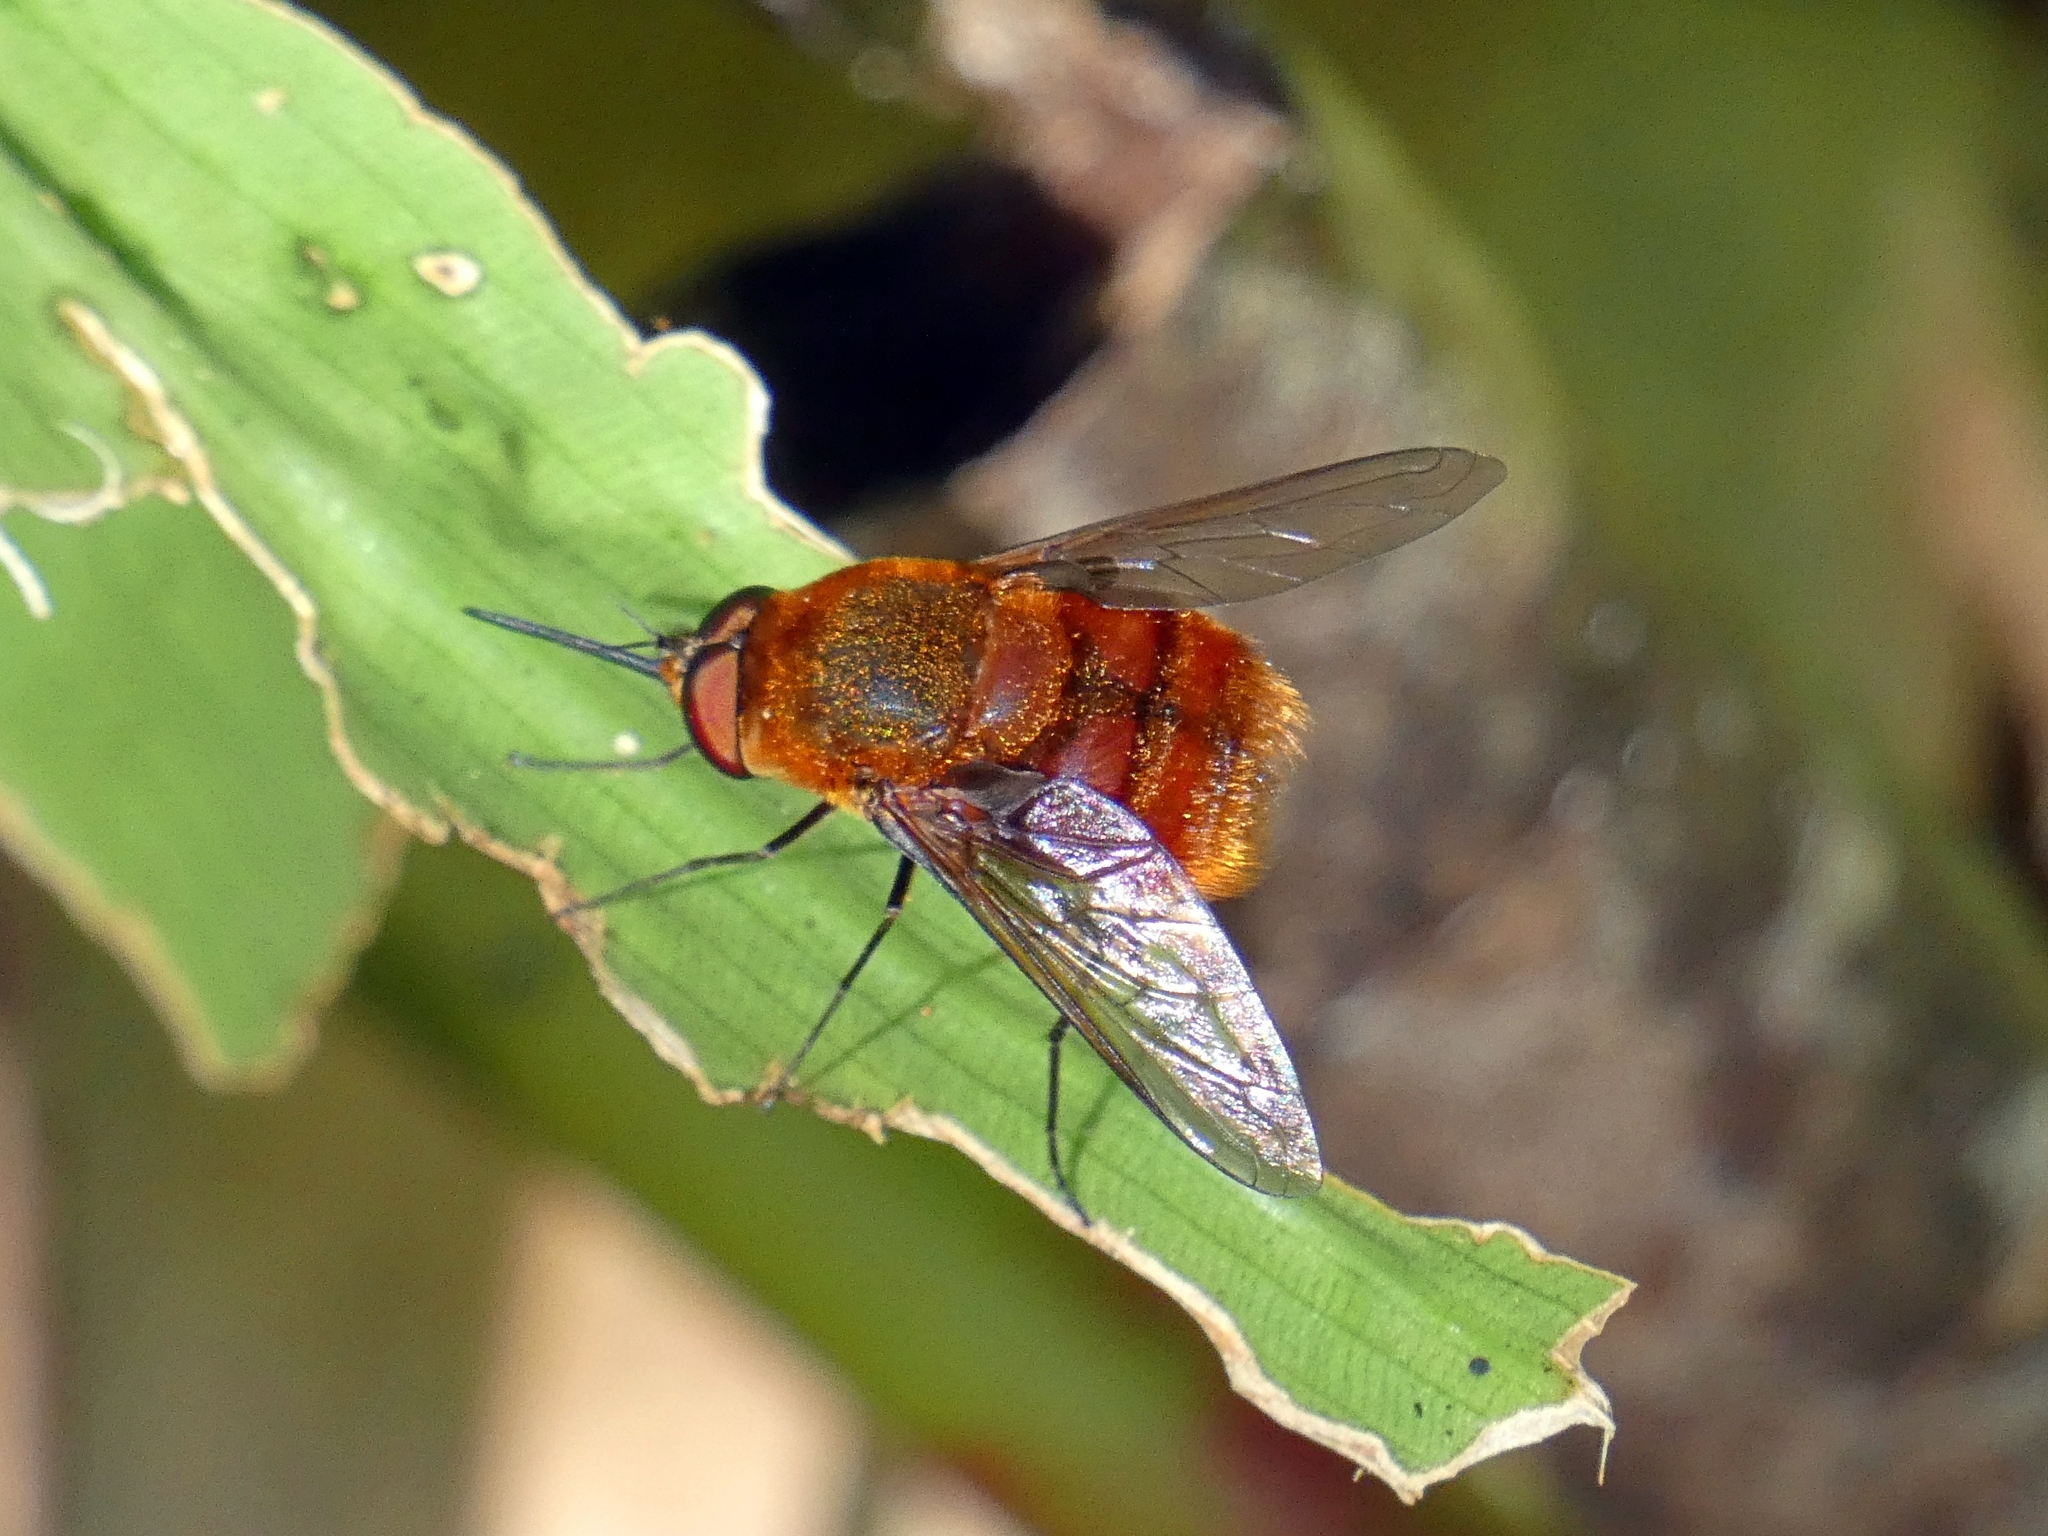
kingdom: Animalia
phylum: Arthropoda
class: Insecta
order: Diptera
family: Bombyliidae
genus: Eristalopsis
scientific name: Eristalopsis robertsi
